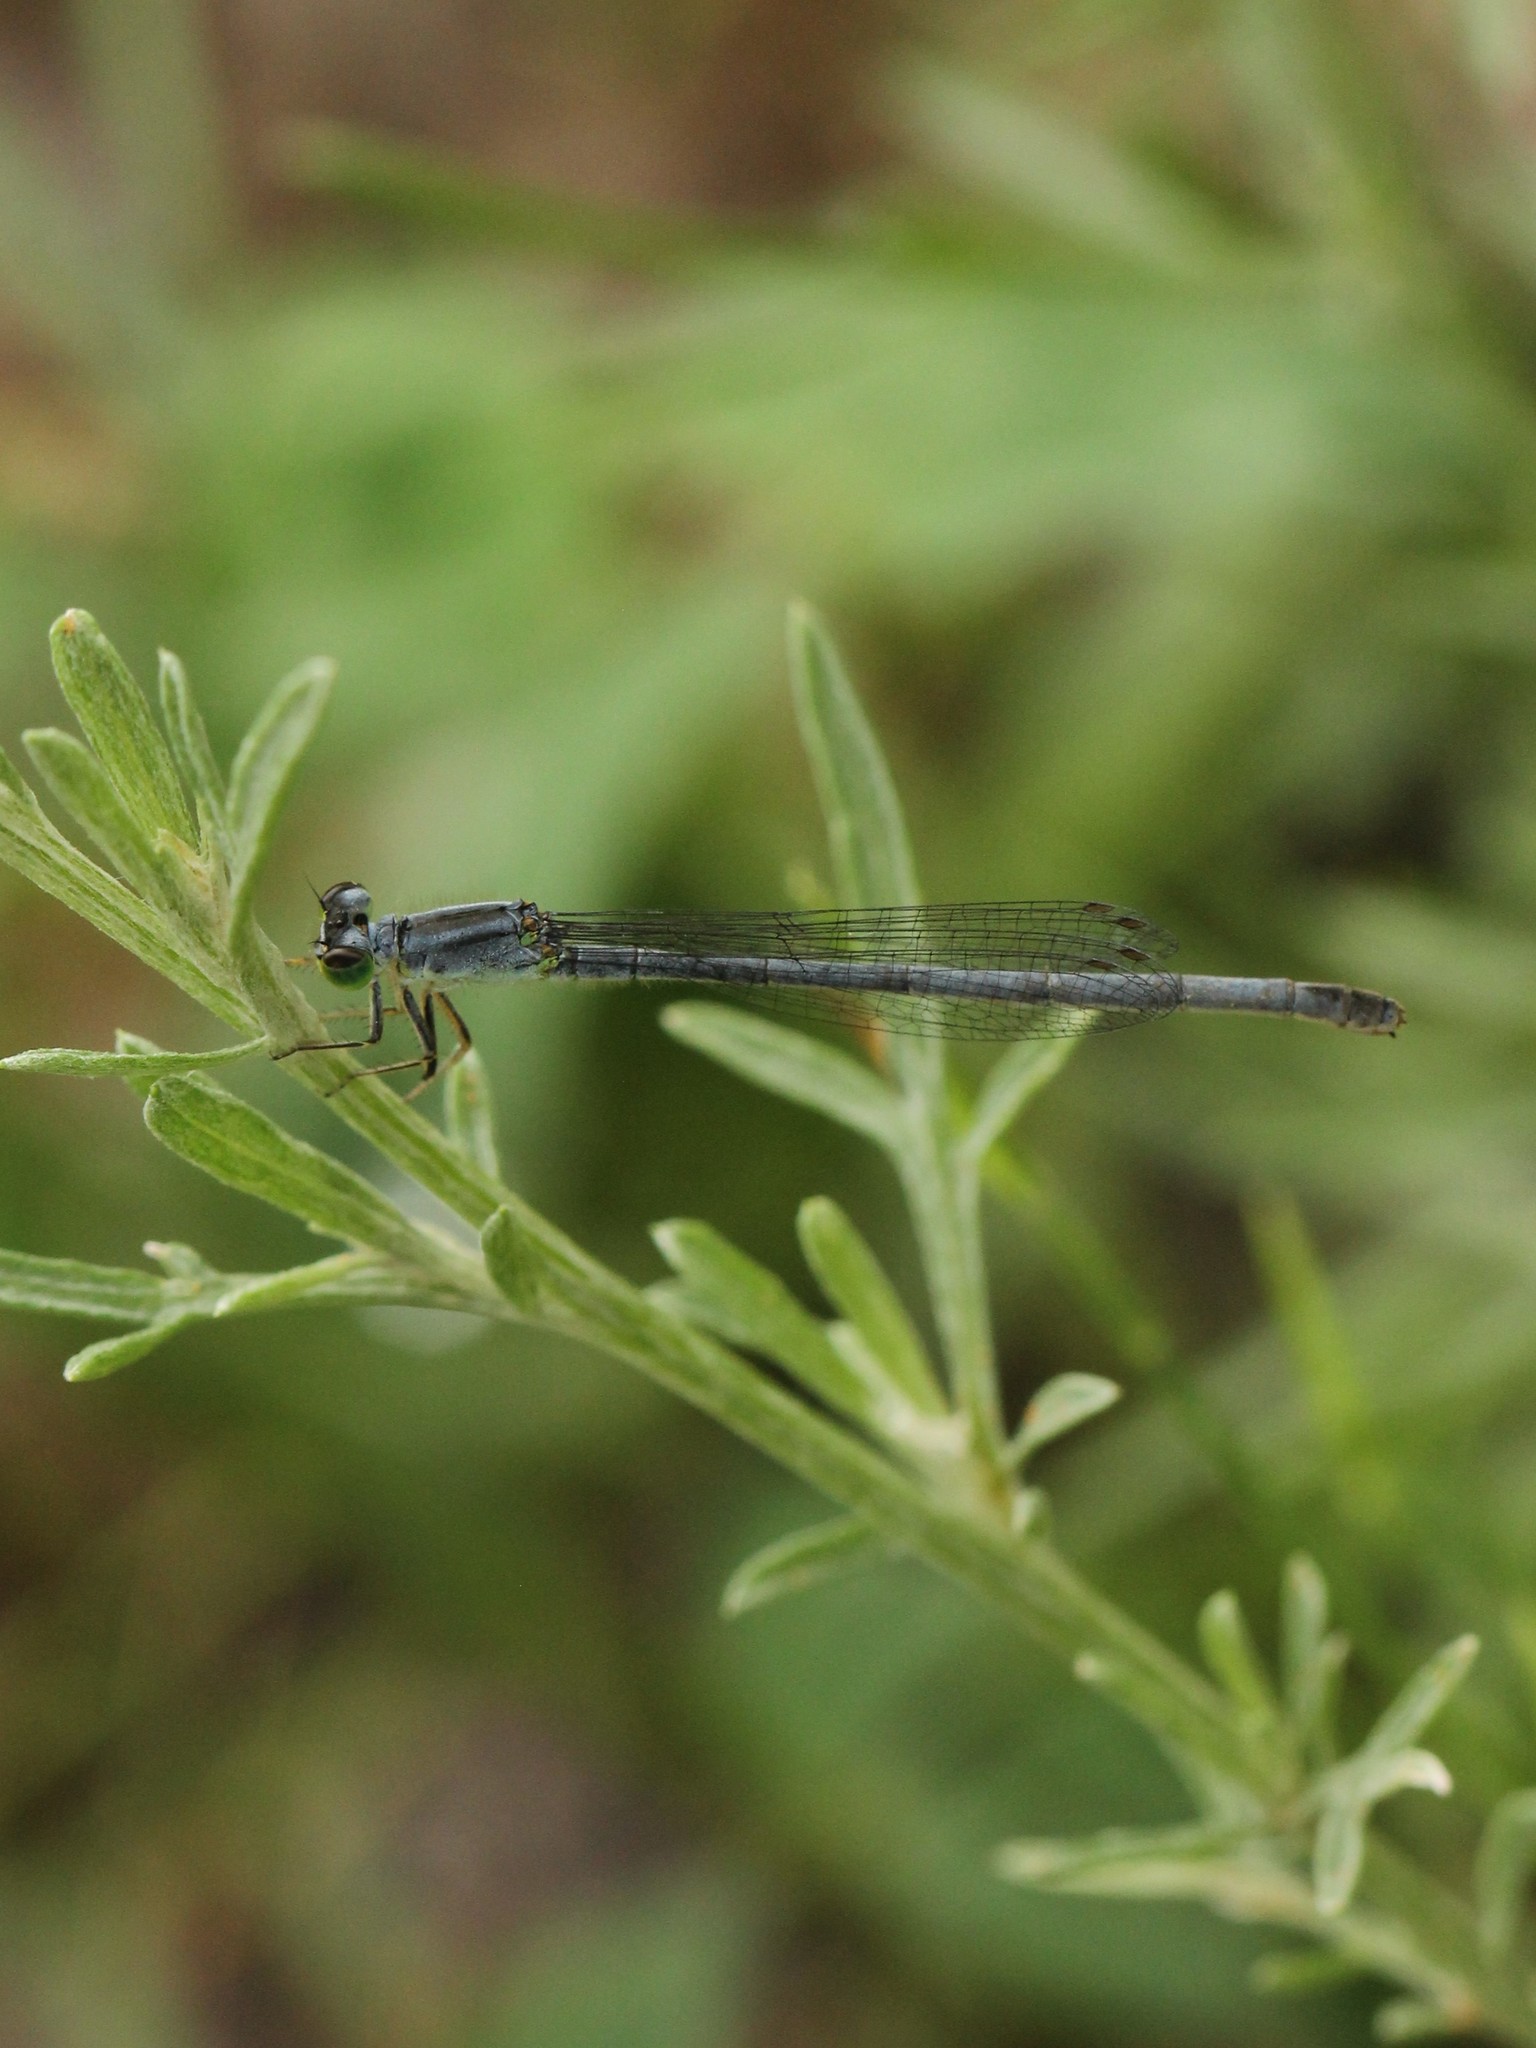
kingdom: Animalia
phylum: Arthropoda
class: Insecta
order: Odonata
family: Coenagrionidae
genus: Ischnura
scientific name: Ischnura verticalis
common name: Eastern forktail
